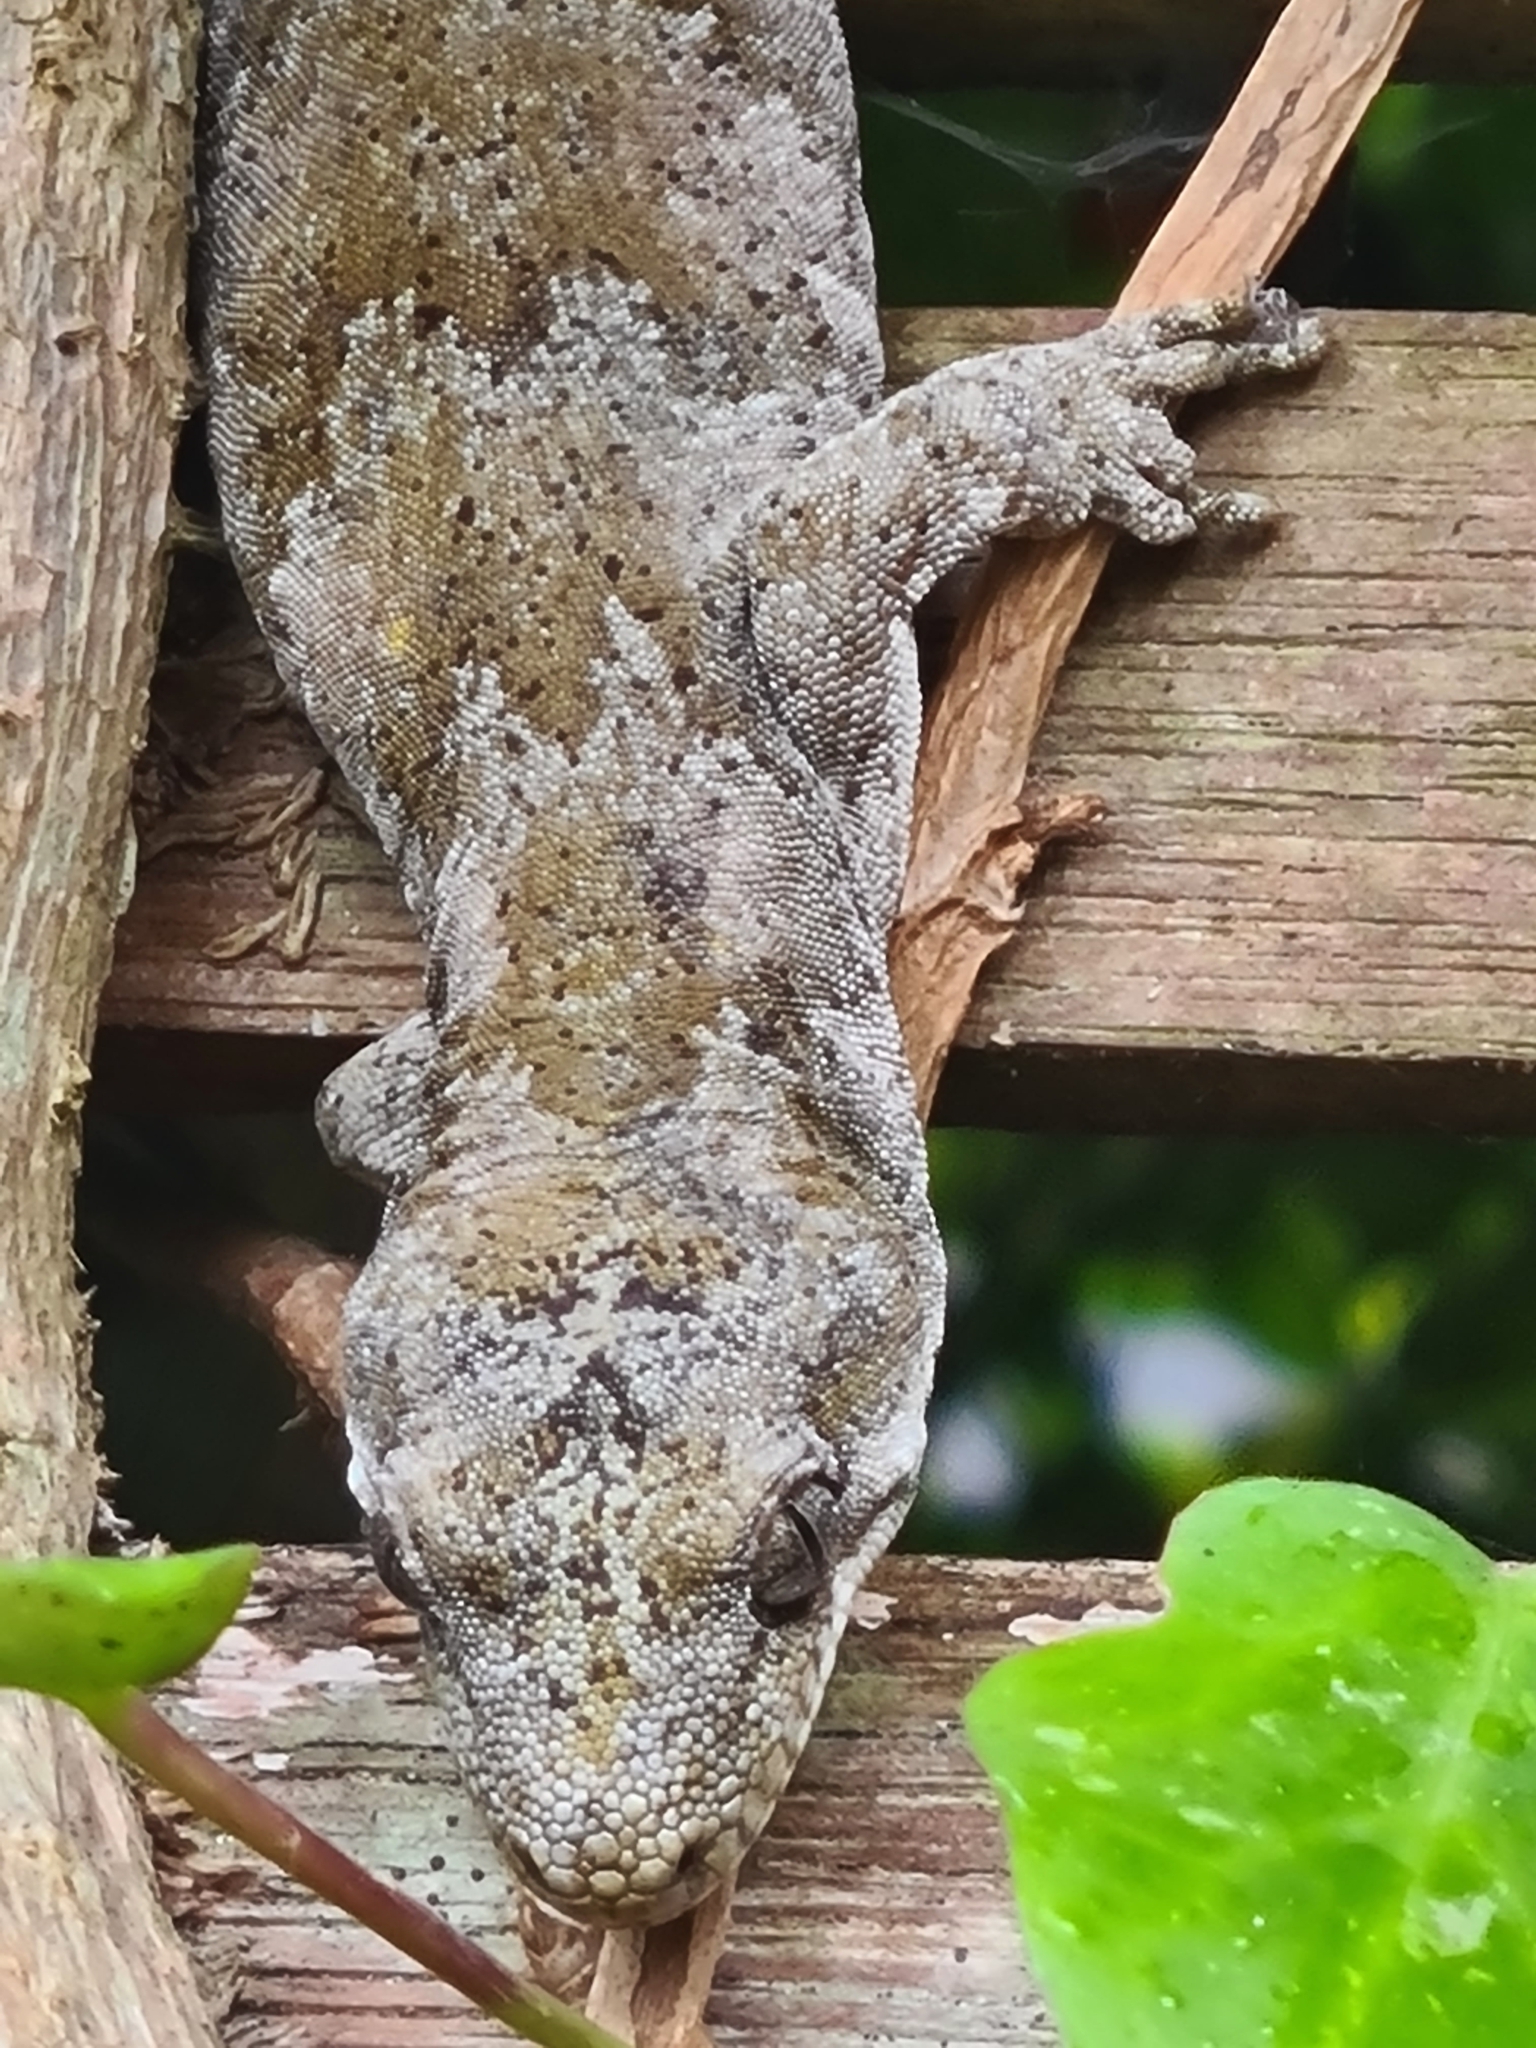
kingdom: Animalia
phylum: Chordata
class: Squamata
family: Diplodactylidae
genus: Mokopirirakau
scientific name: Mokopirirakau granulatus
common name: Forest gecko
